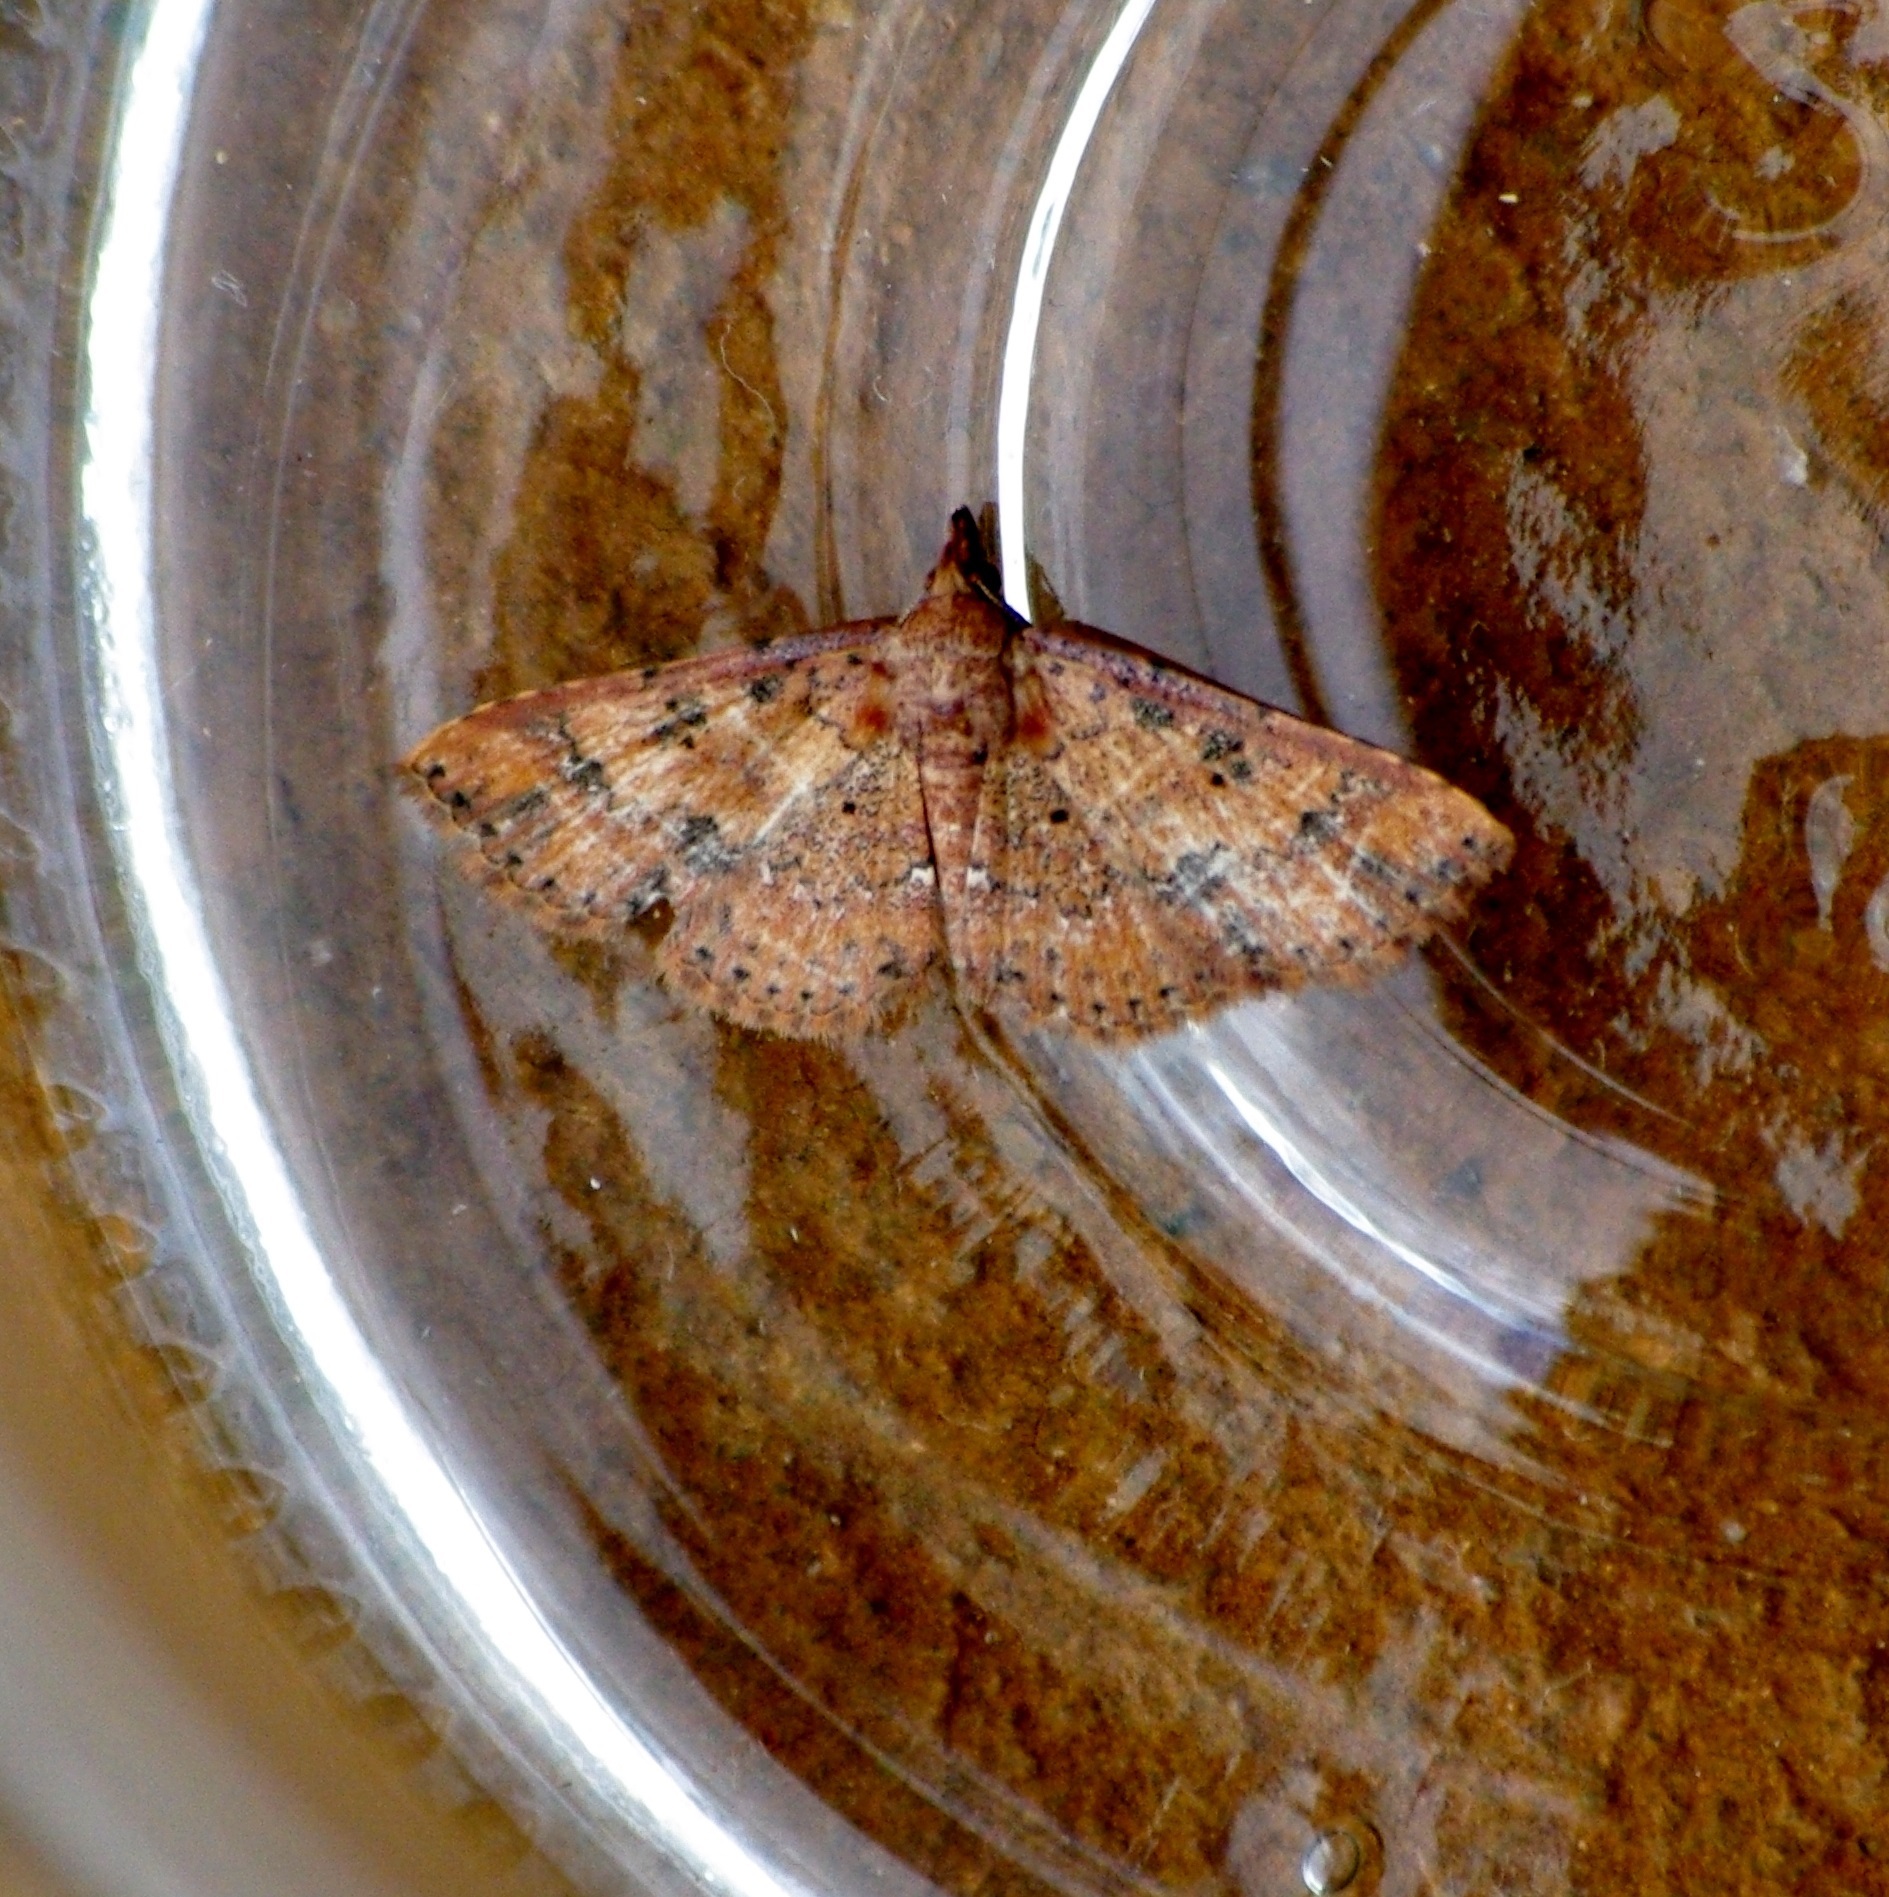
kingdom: Animalia
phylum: Arthropoda
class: Insecta
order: Lepidoptera
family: Noctuidae
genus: Cerynea
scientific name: Cerynea porphyrea
